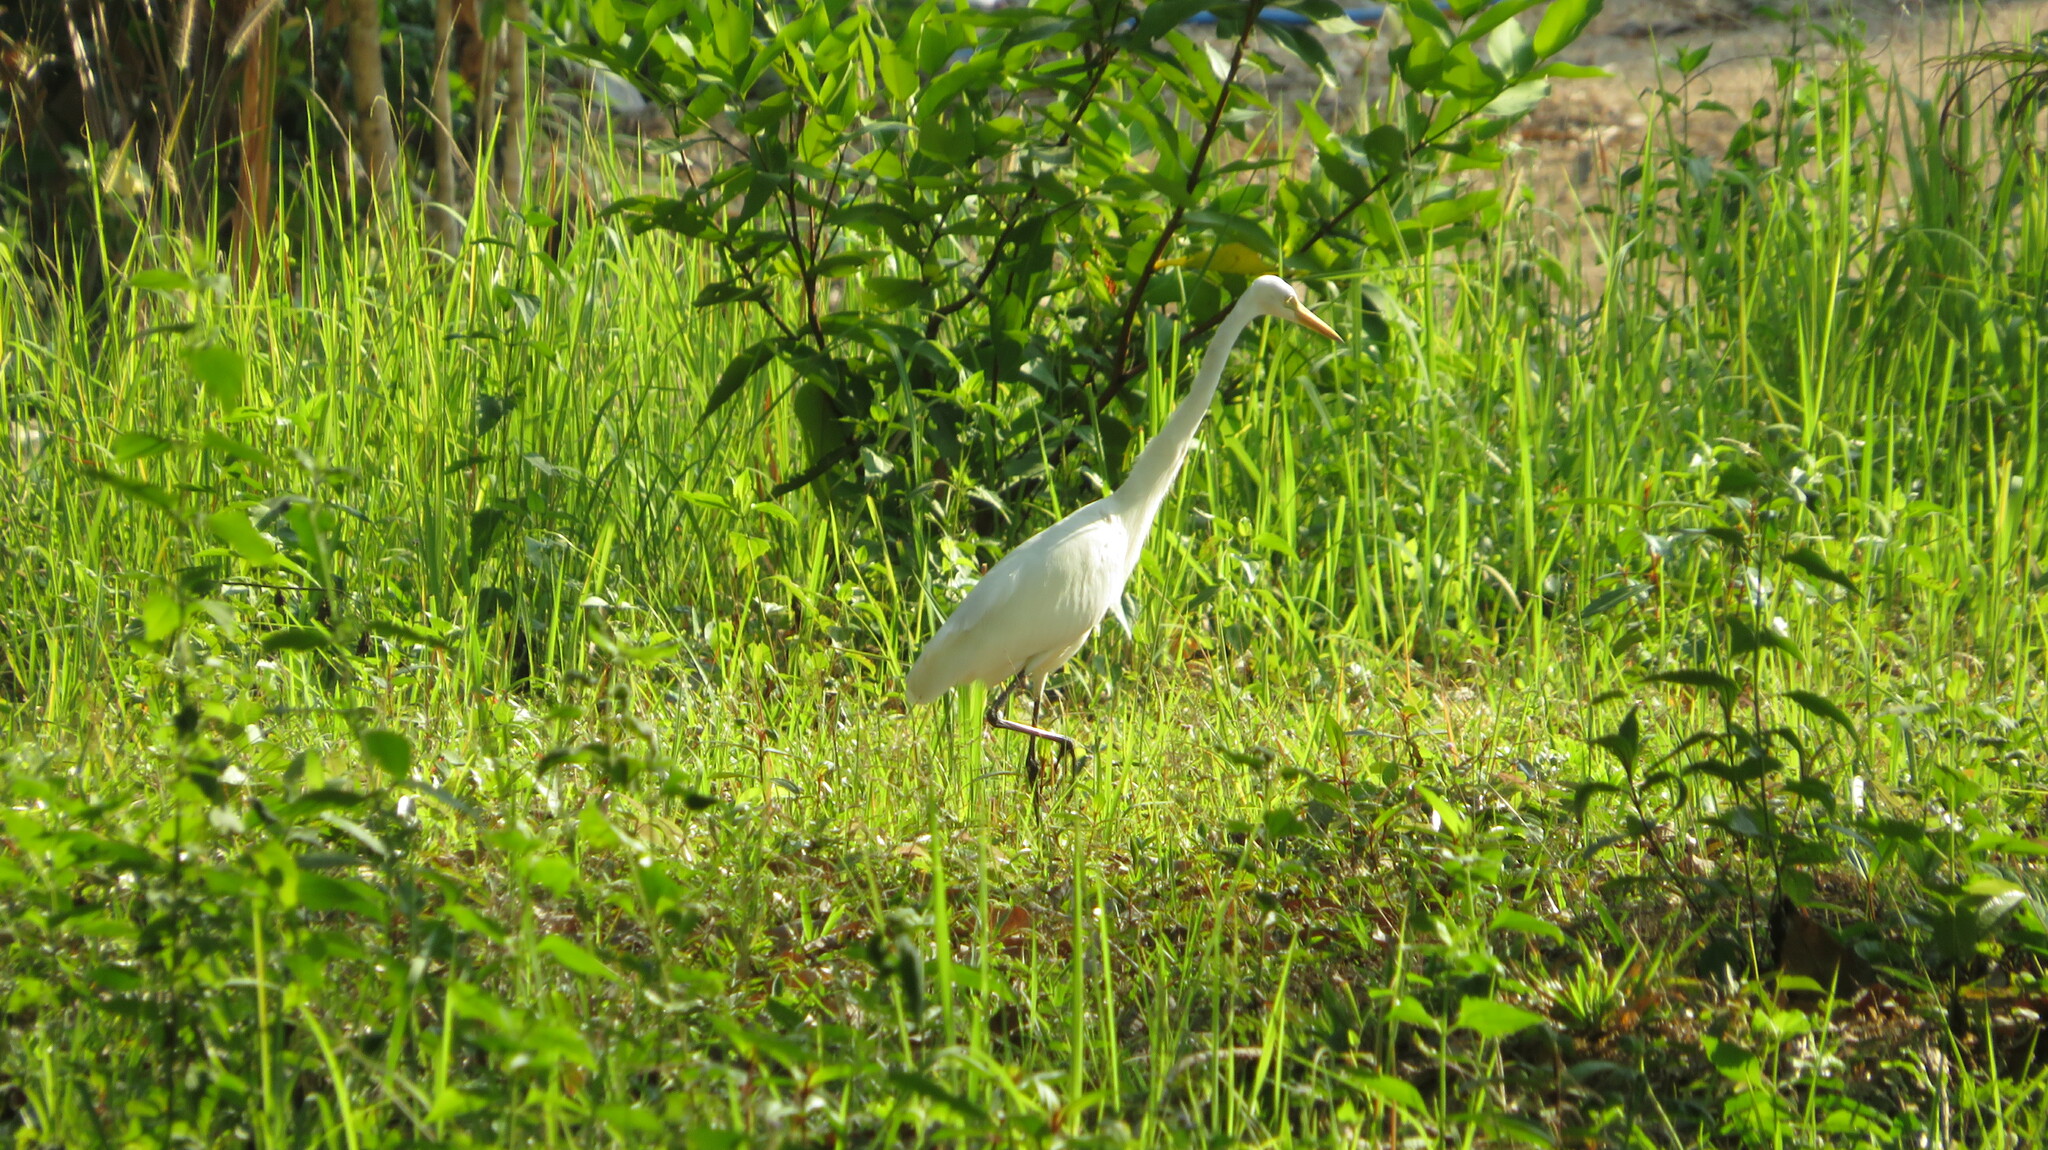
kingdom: Animalia
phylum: Chordata
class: Aves
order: Pelecaniformes
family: Ardeidae
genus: Egretta
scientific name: Egretta intermedia
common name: Intermediate egret
